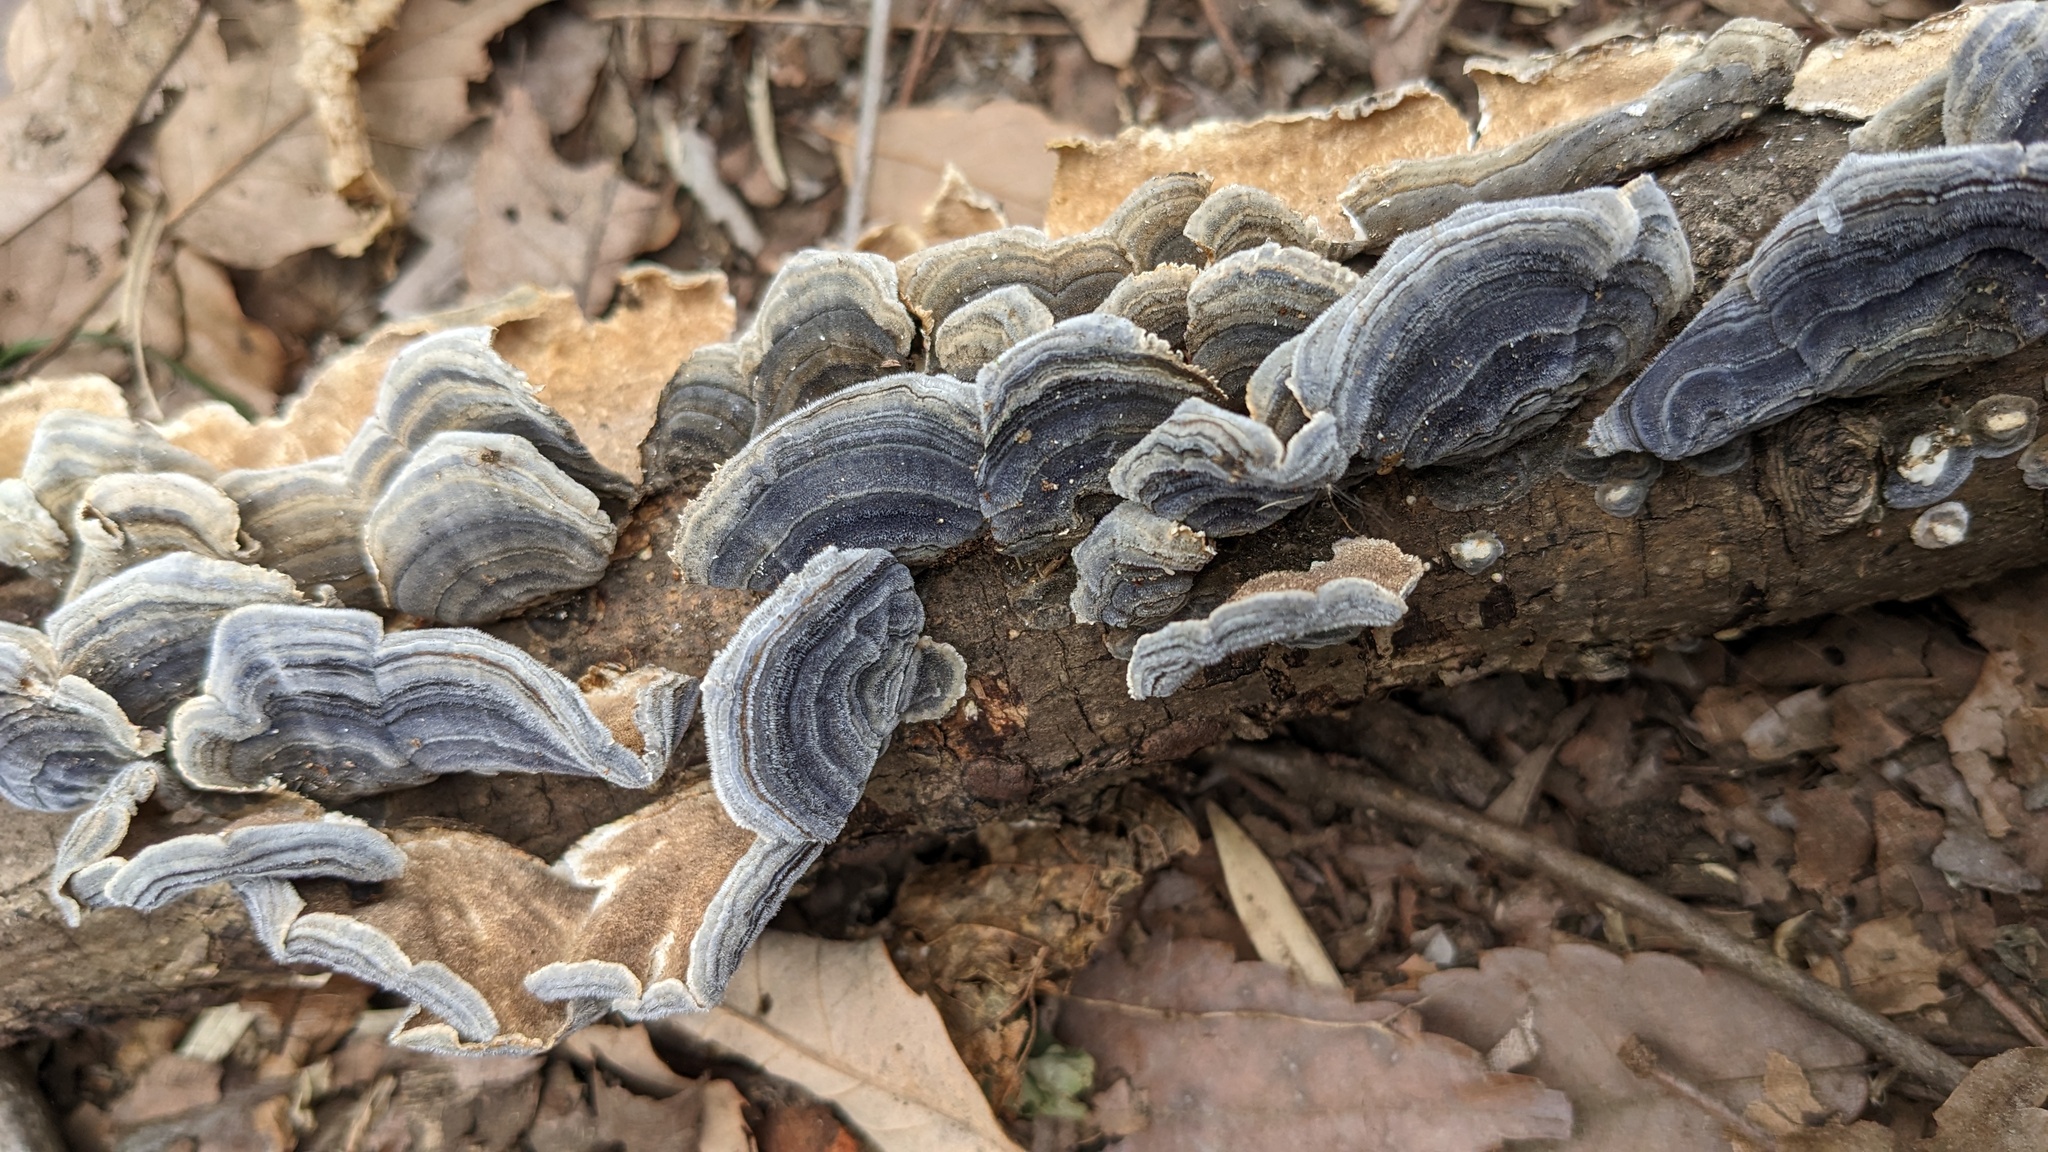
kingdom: Fungi
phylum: Basidiomycota
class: Agaricomycetes
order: Polyporales
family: Polyporaceae
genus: Trametes
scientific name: Trametes versicolor
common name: Turkeytail
